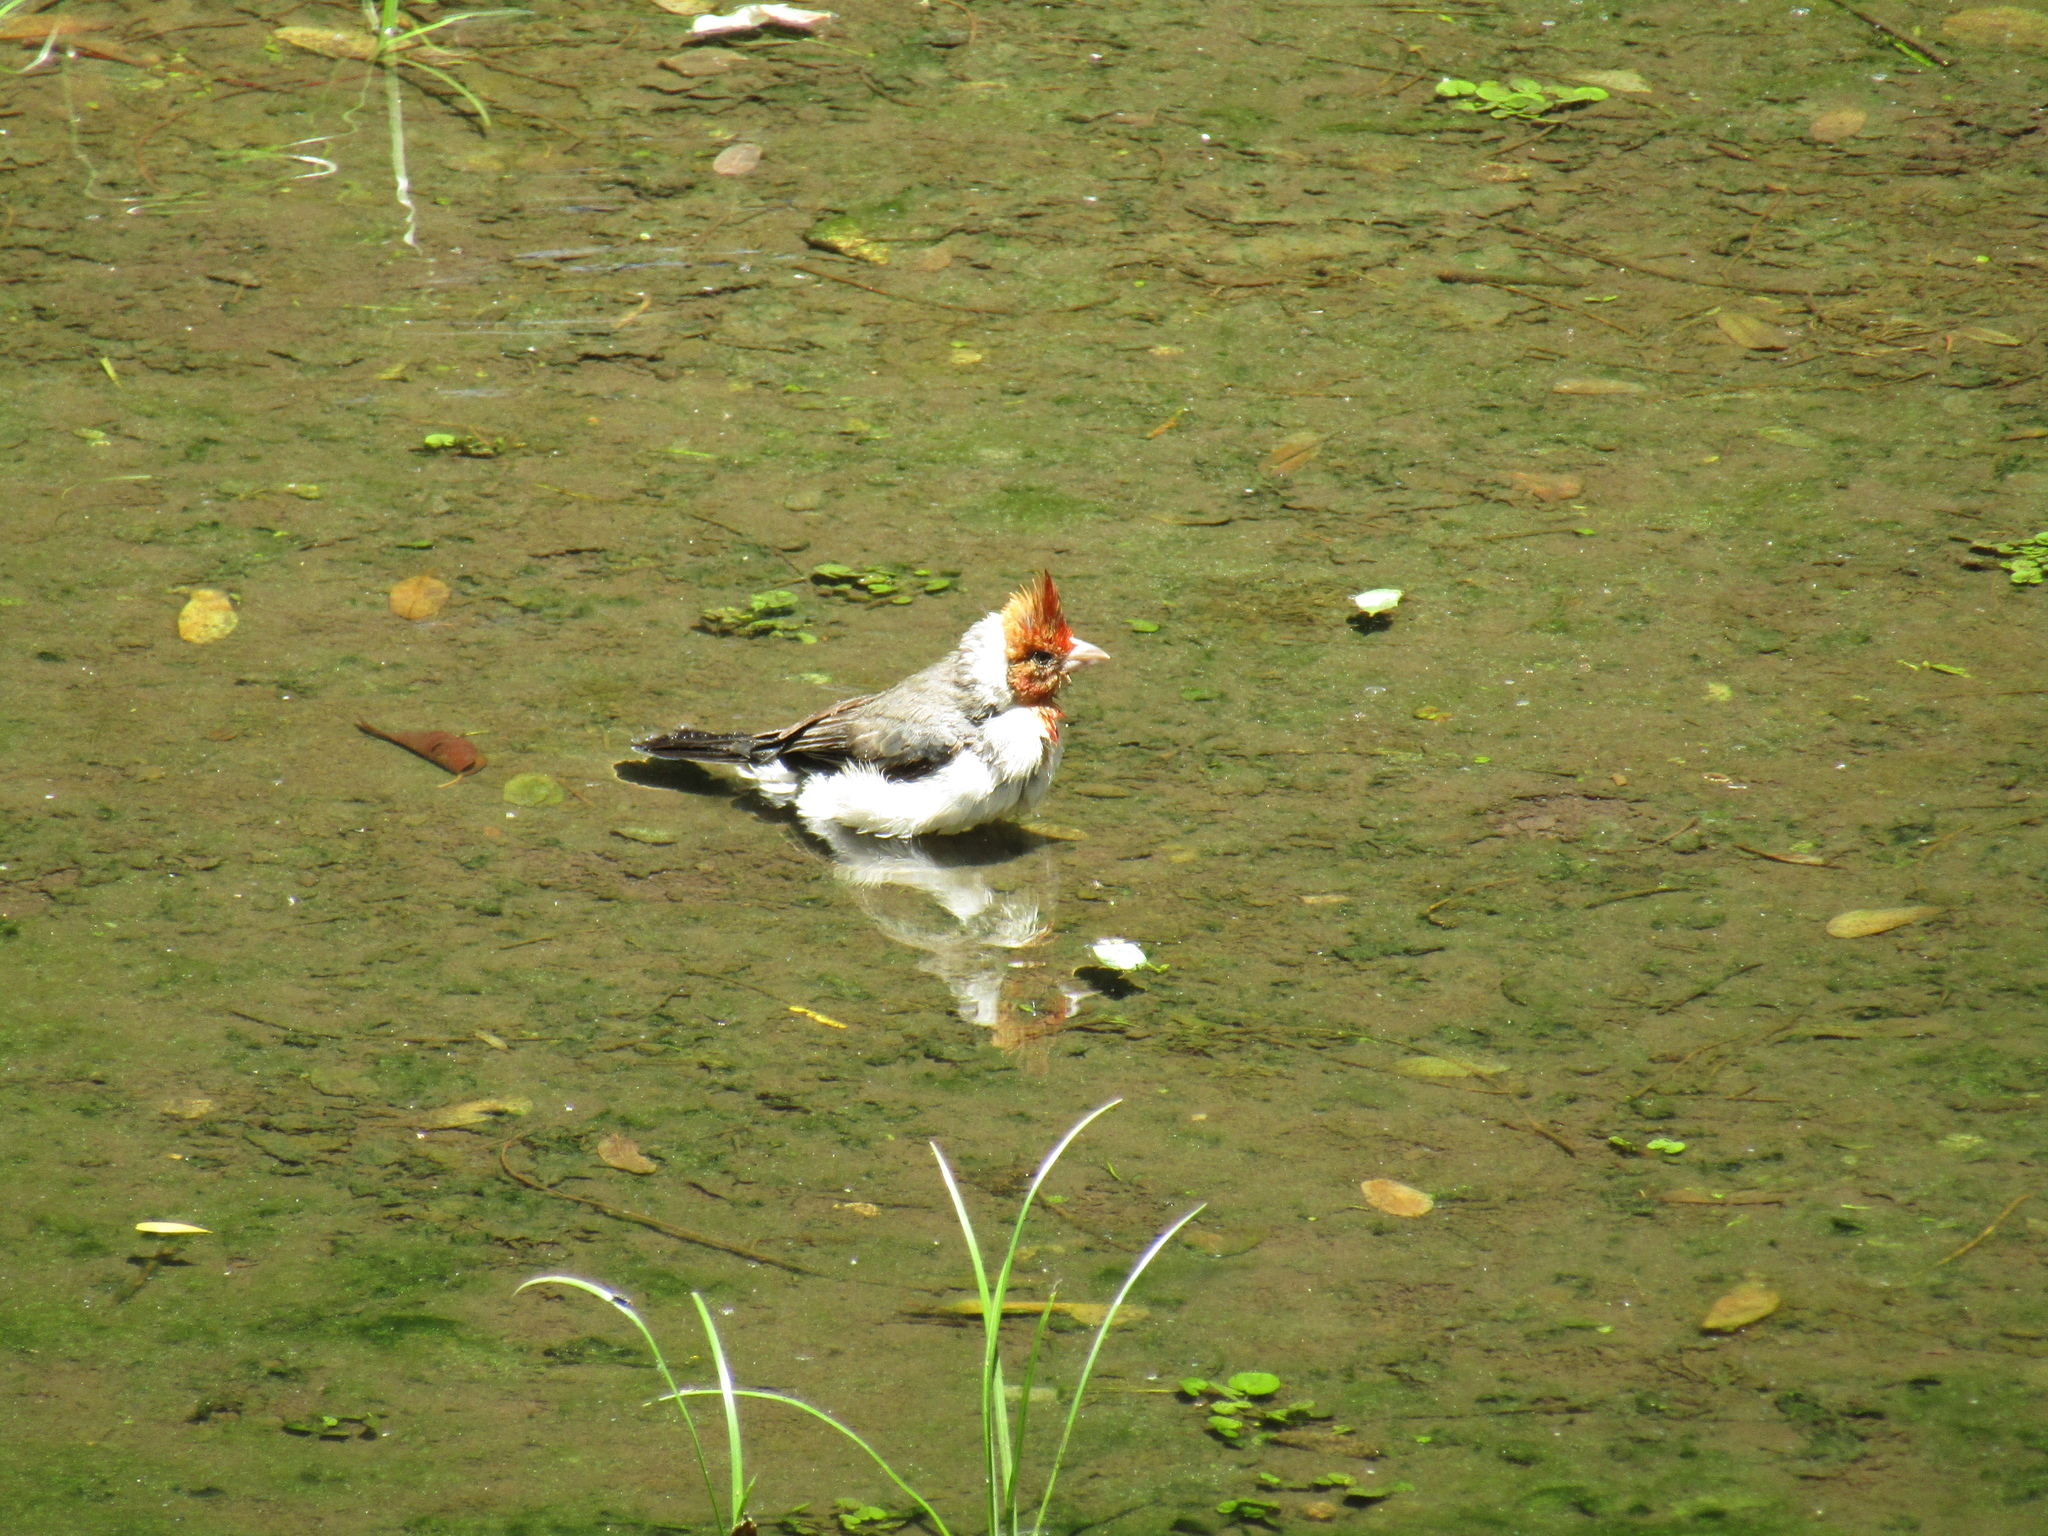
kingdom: Animalia
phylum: Chordata
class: Aves
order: Passeriformes
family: Thraupidae
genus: Paroaria
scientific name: Paroaria coronata
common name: Red-crested cardinal
